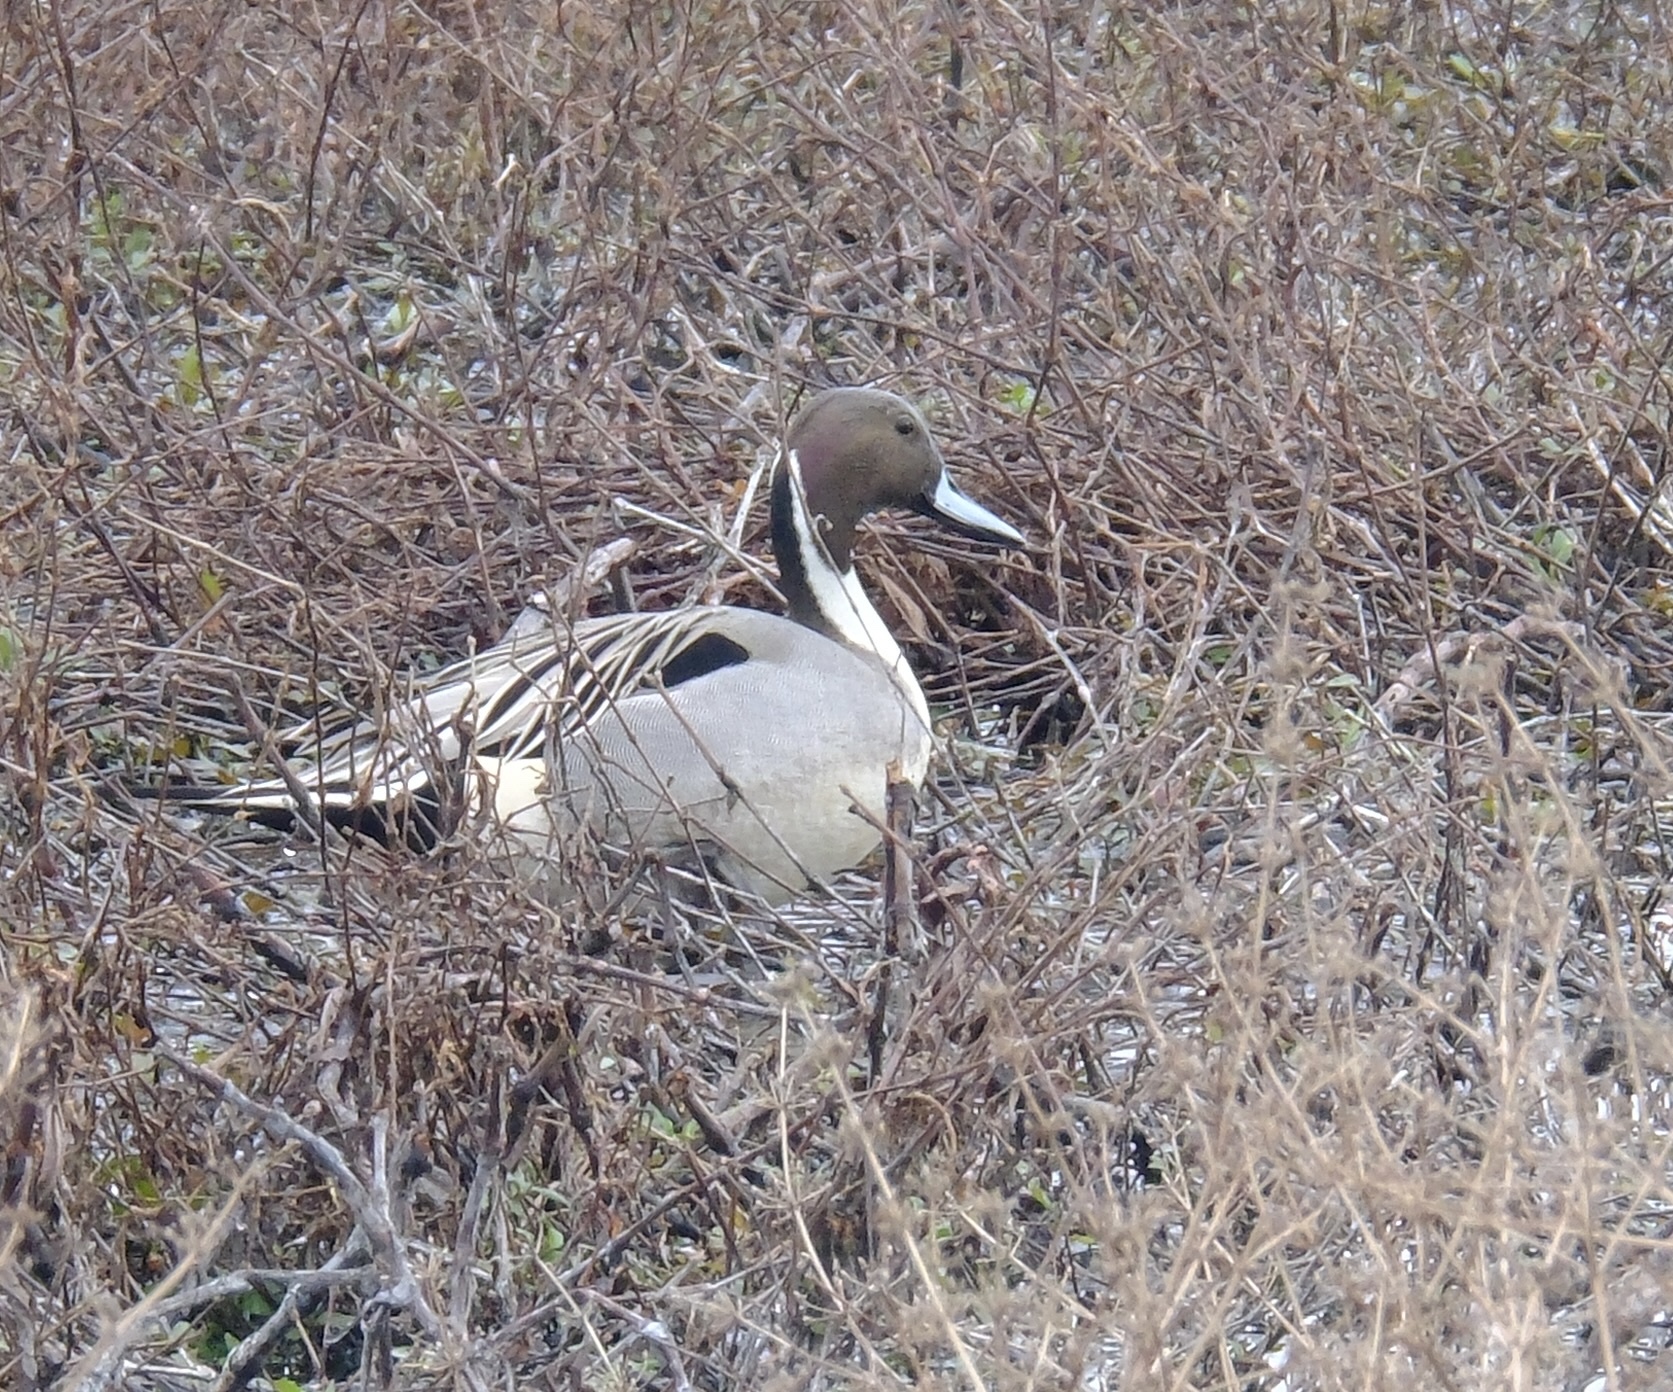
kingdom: Animalia
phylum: Chordata
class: Aves
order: Anseriformes
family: Anatidae
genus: Anas
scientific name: Anas acuta
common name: Northern pintail
